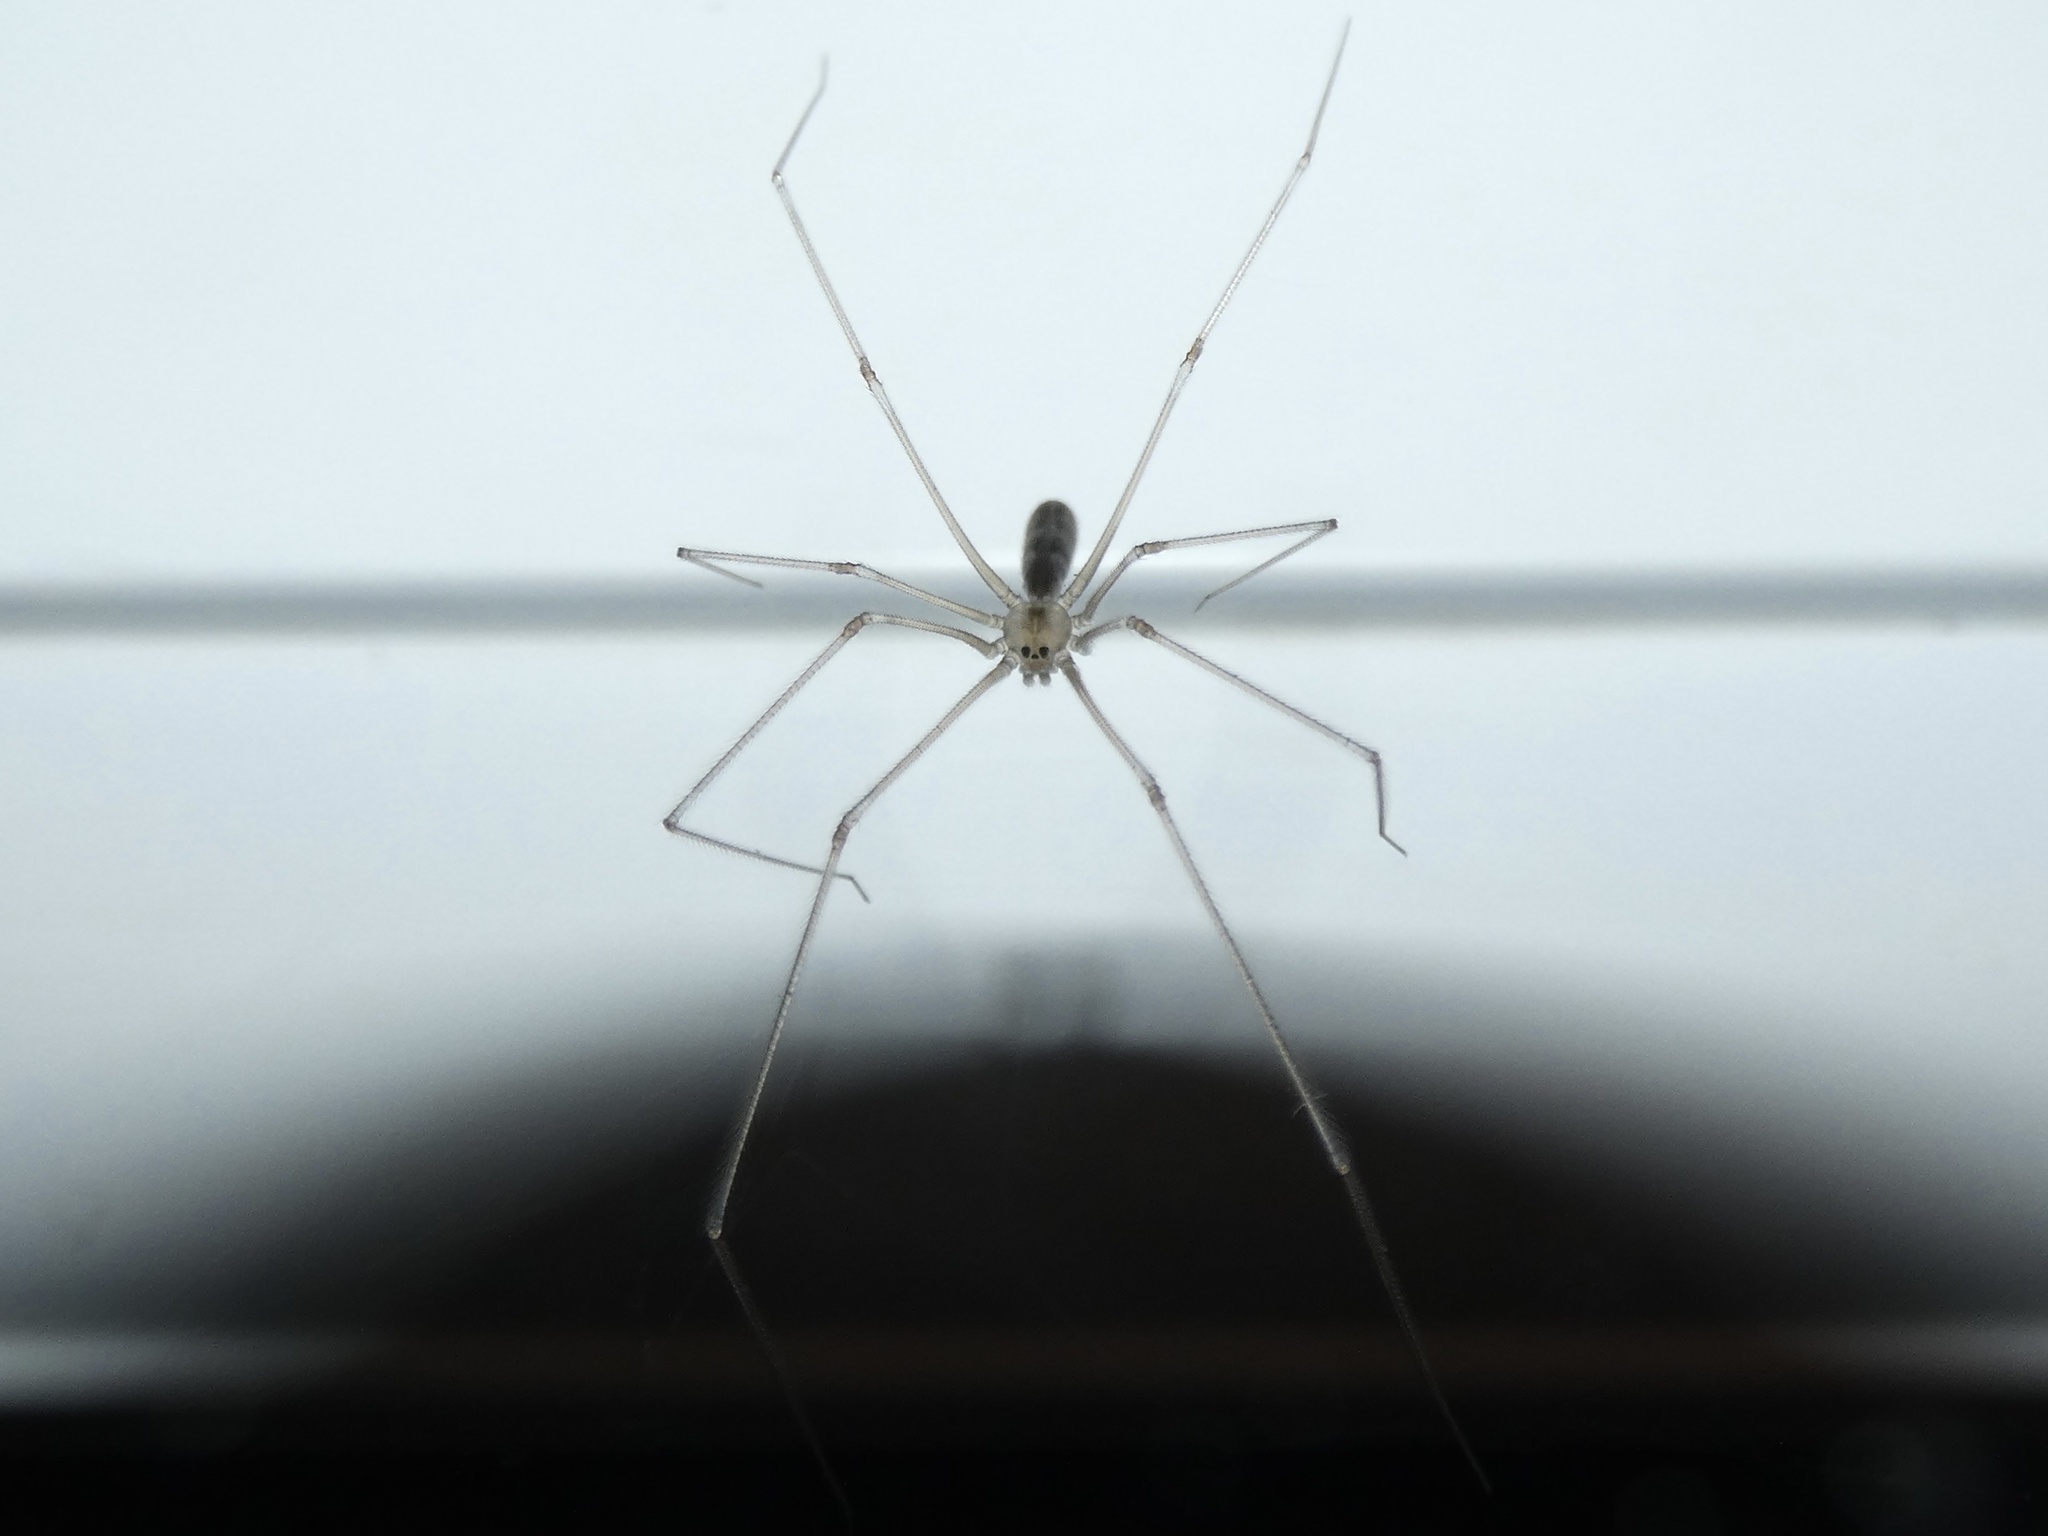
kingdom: Animalia
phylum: Arthropoda
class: Arachnida
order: Araneae
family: Pholcidae
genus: Pholcus
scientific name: Pholcus phalangioides
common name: Longbodied cellar spider
